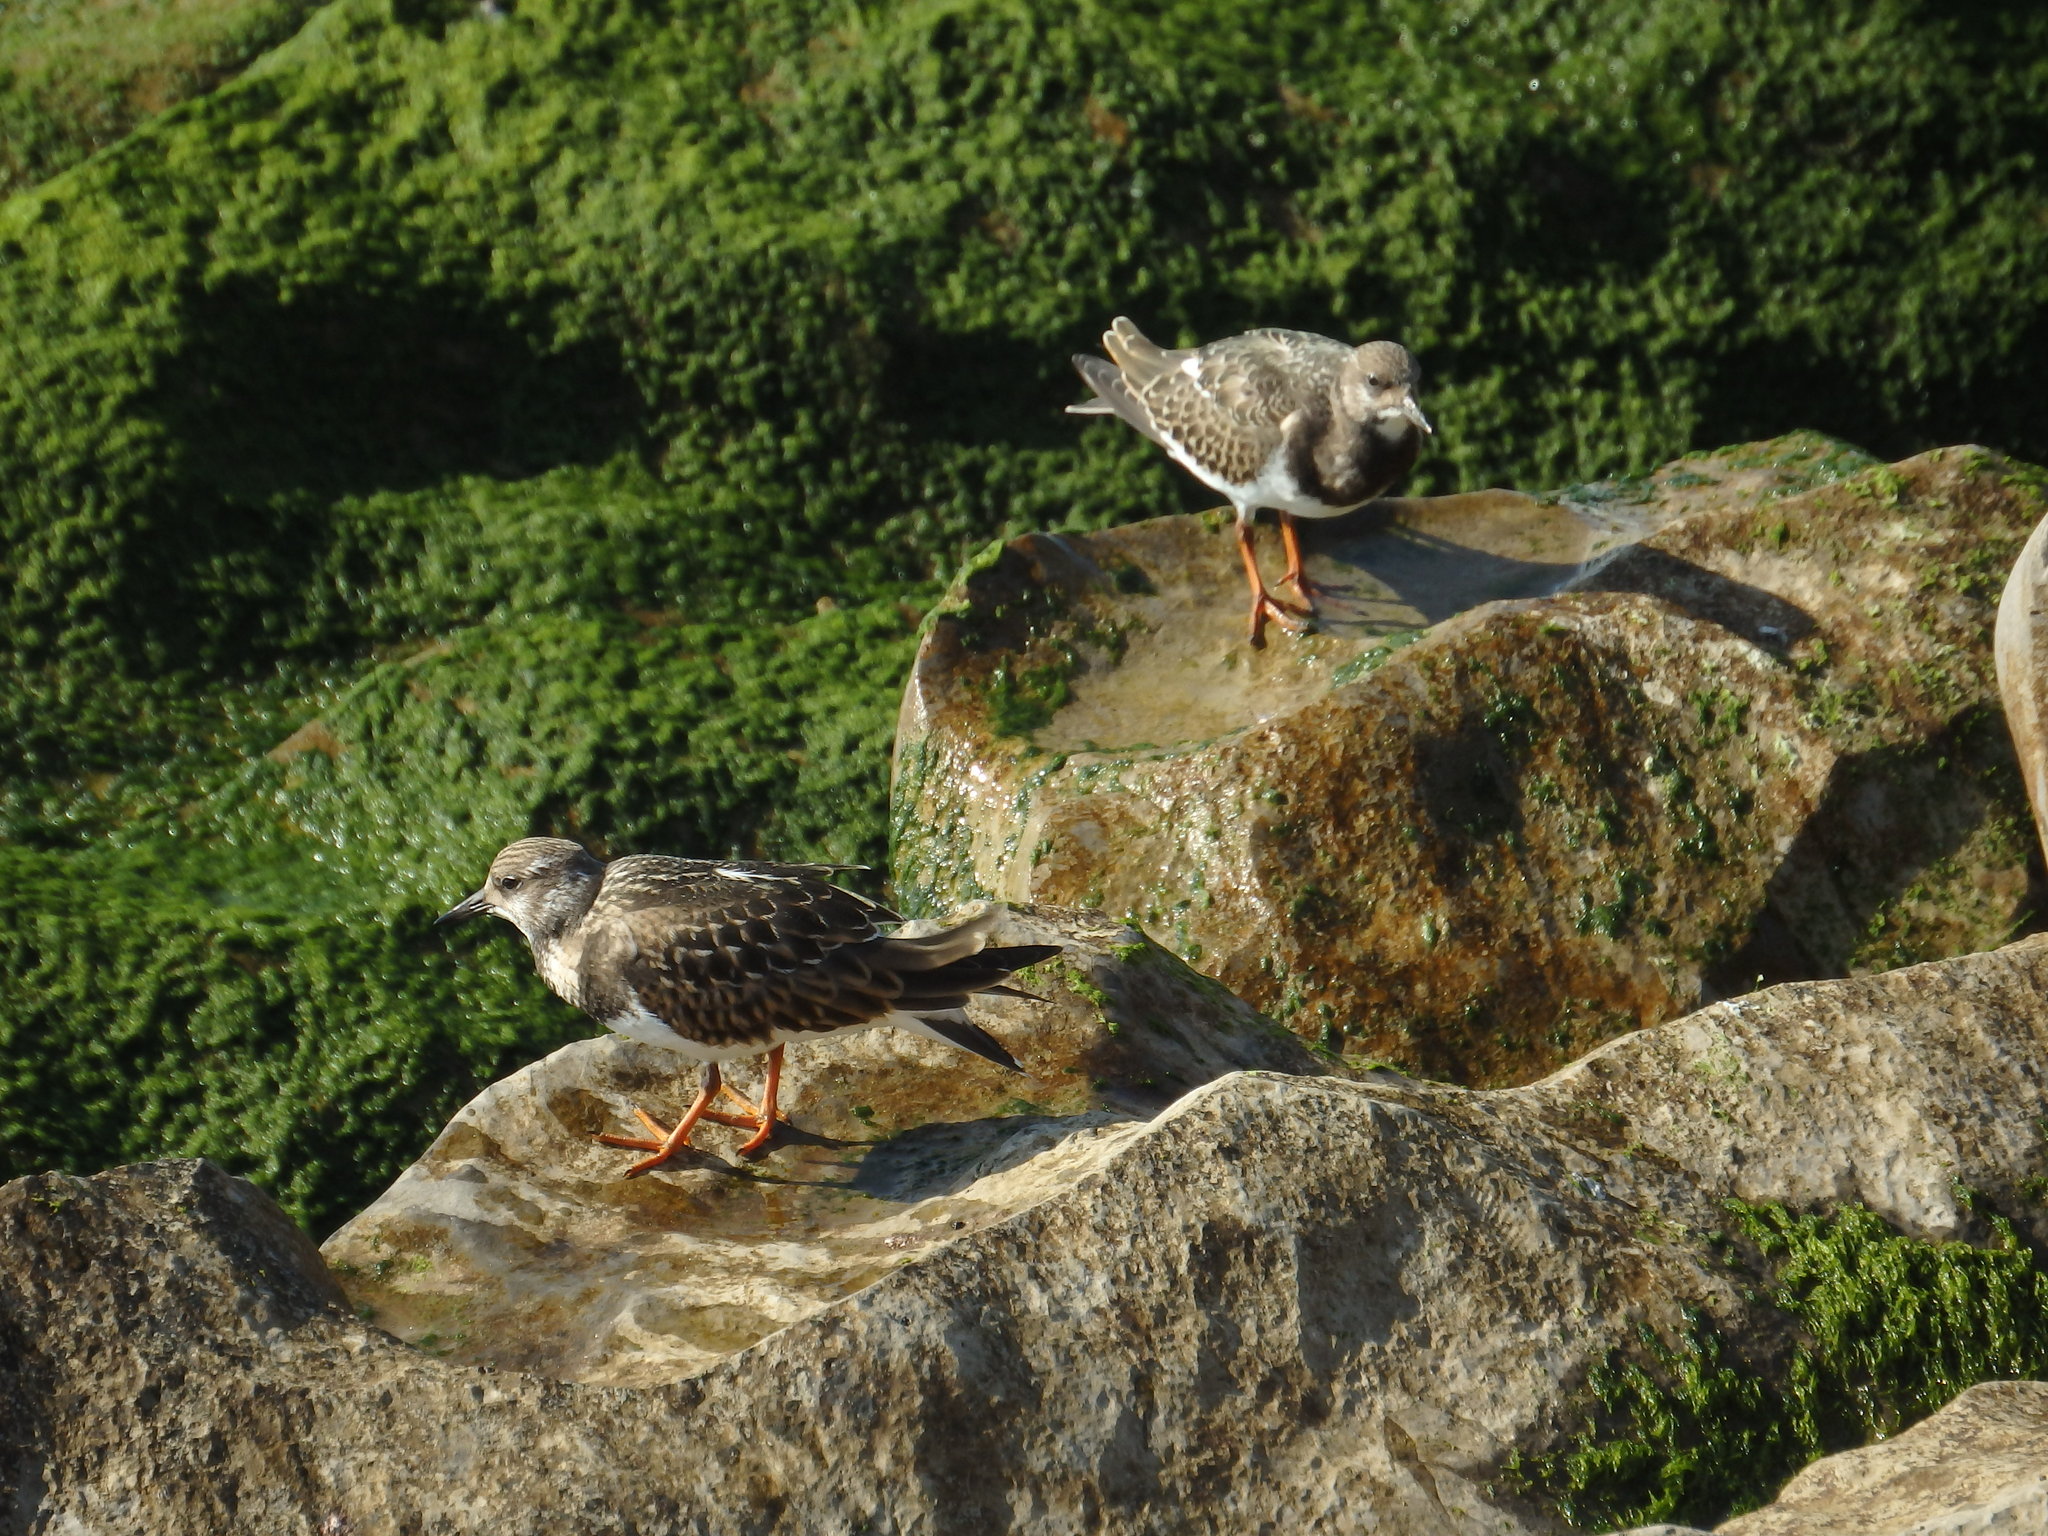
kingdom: Animalia
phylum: Chordata
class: Aves
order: Charadriiformes
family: Scolopacidae
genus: Arenaria
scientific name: Arenaria interpres
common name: Ruddy turnstone
